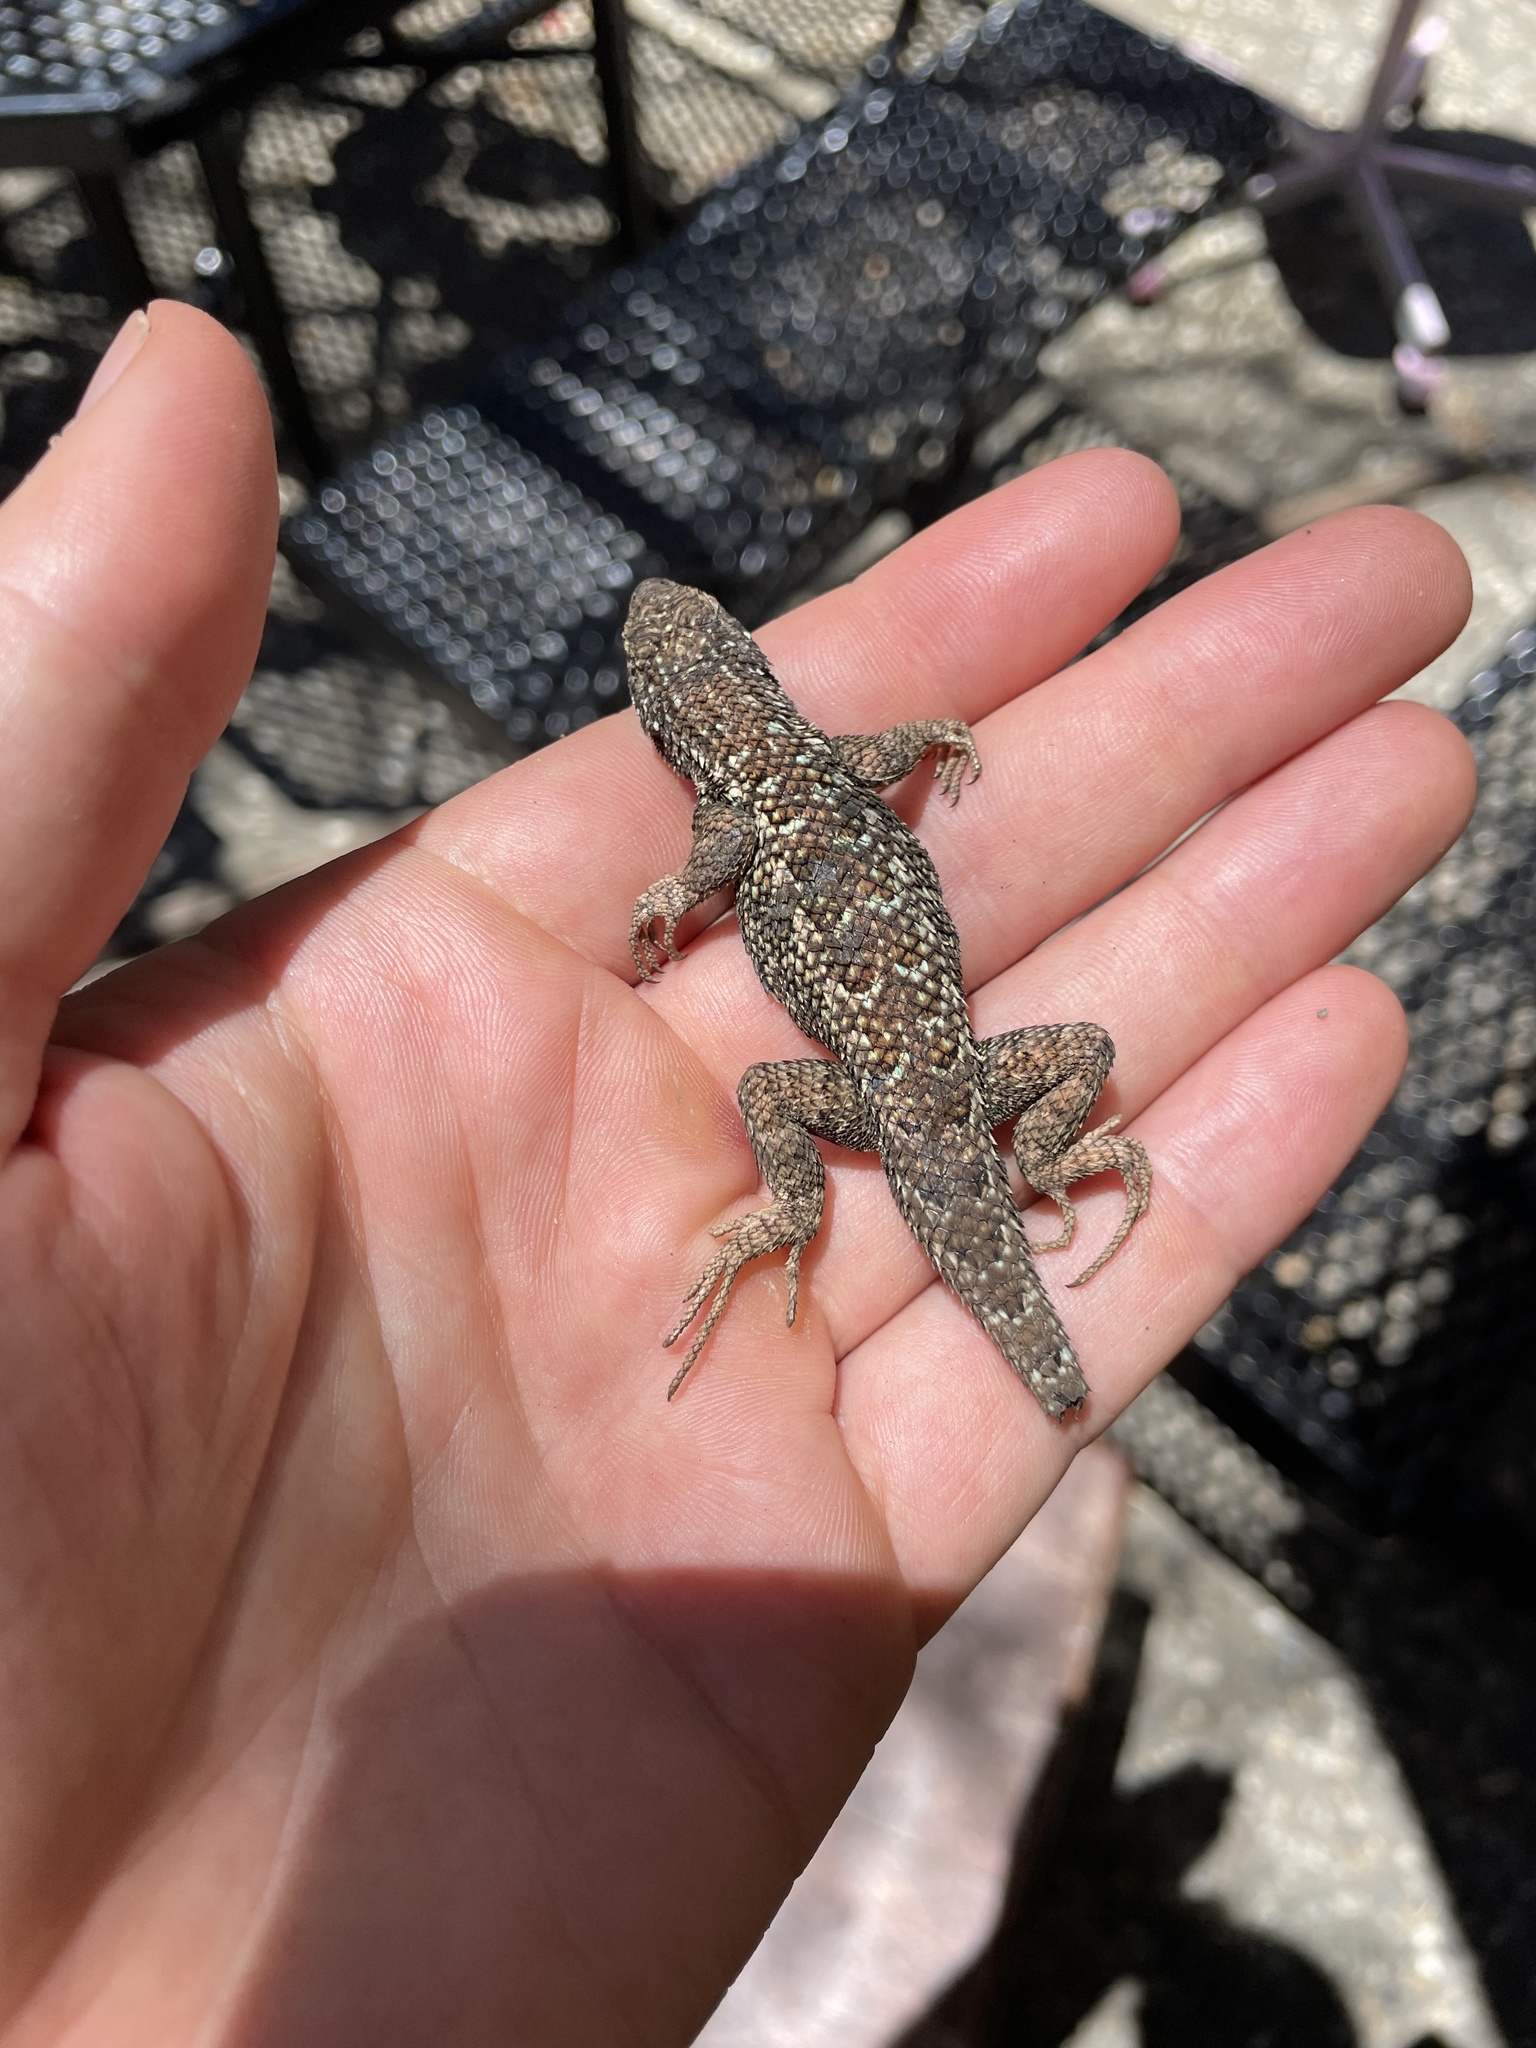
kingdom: Animalia
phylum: Chordata
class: Squamata
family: Phrynosomatidae
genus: Sceloporus
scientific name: Sceloporus occidentalis
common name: Western fence lizard
